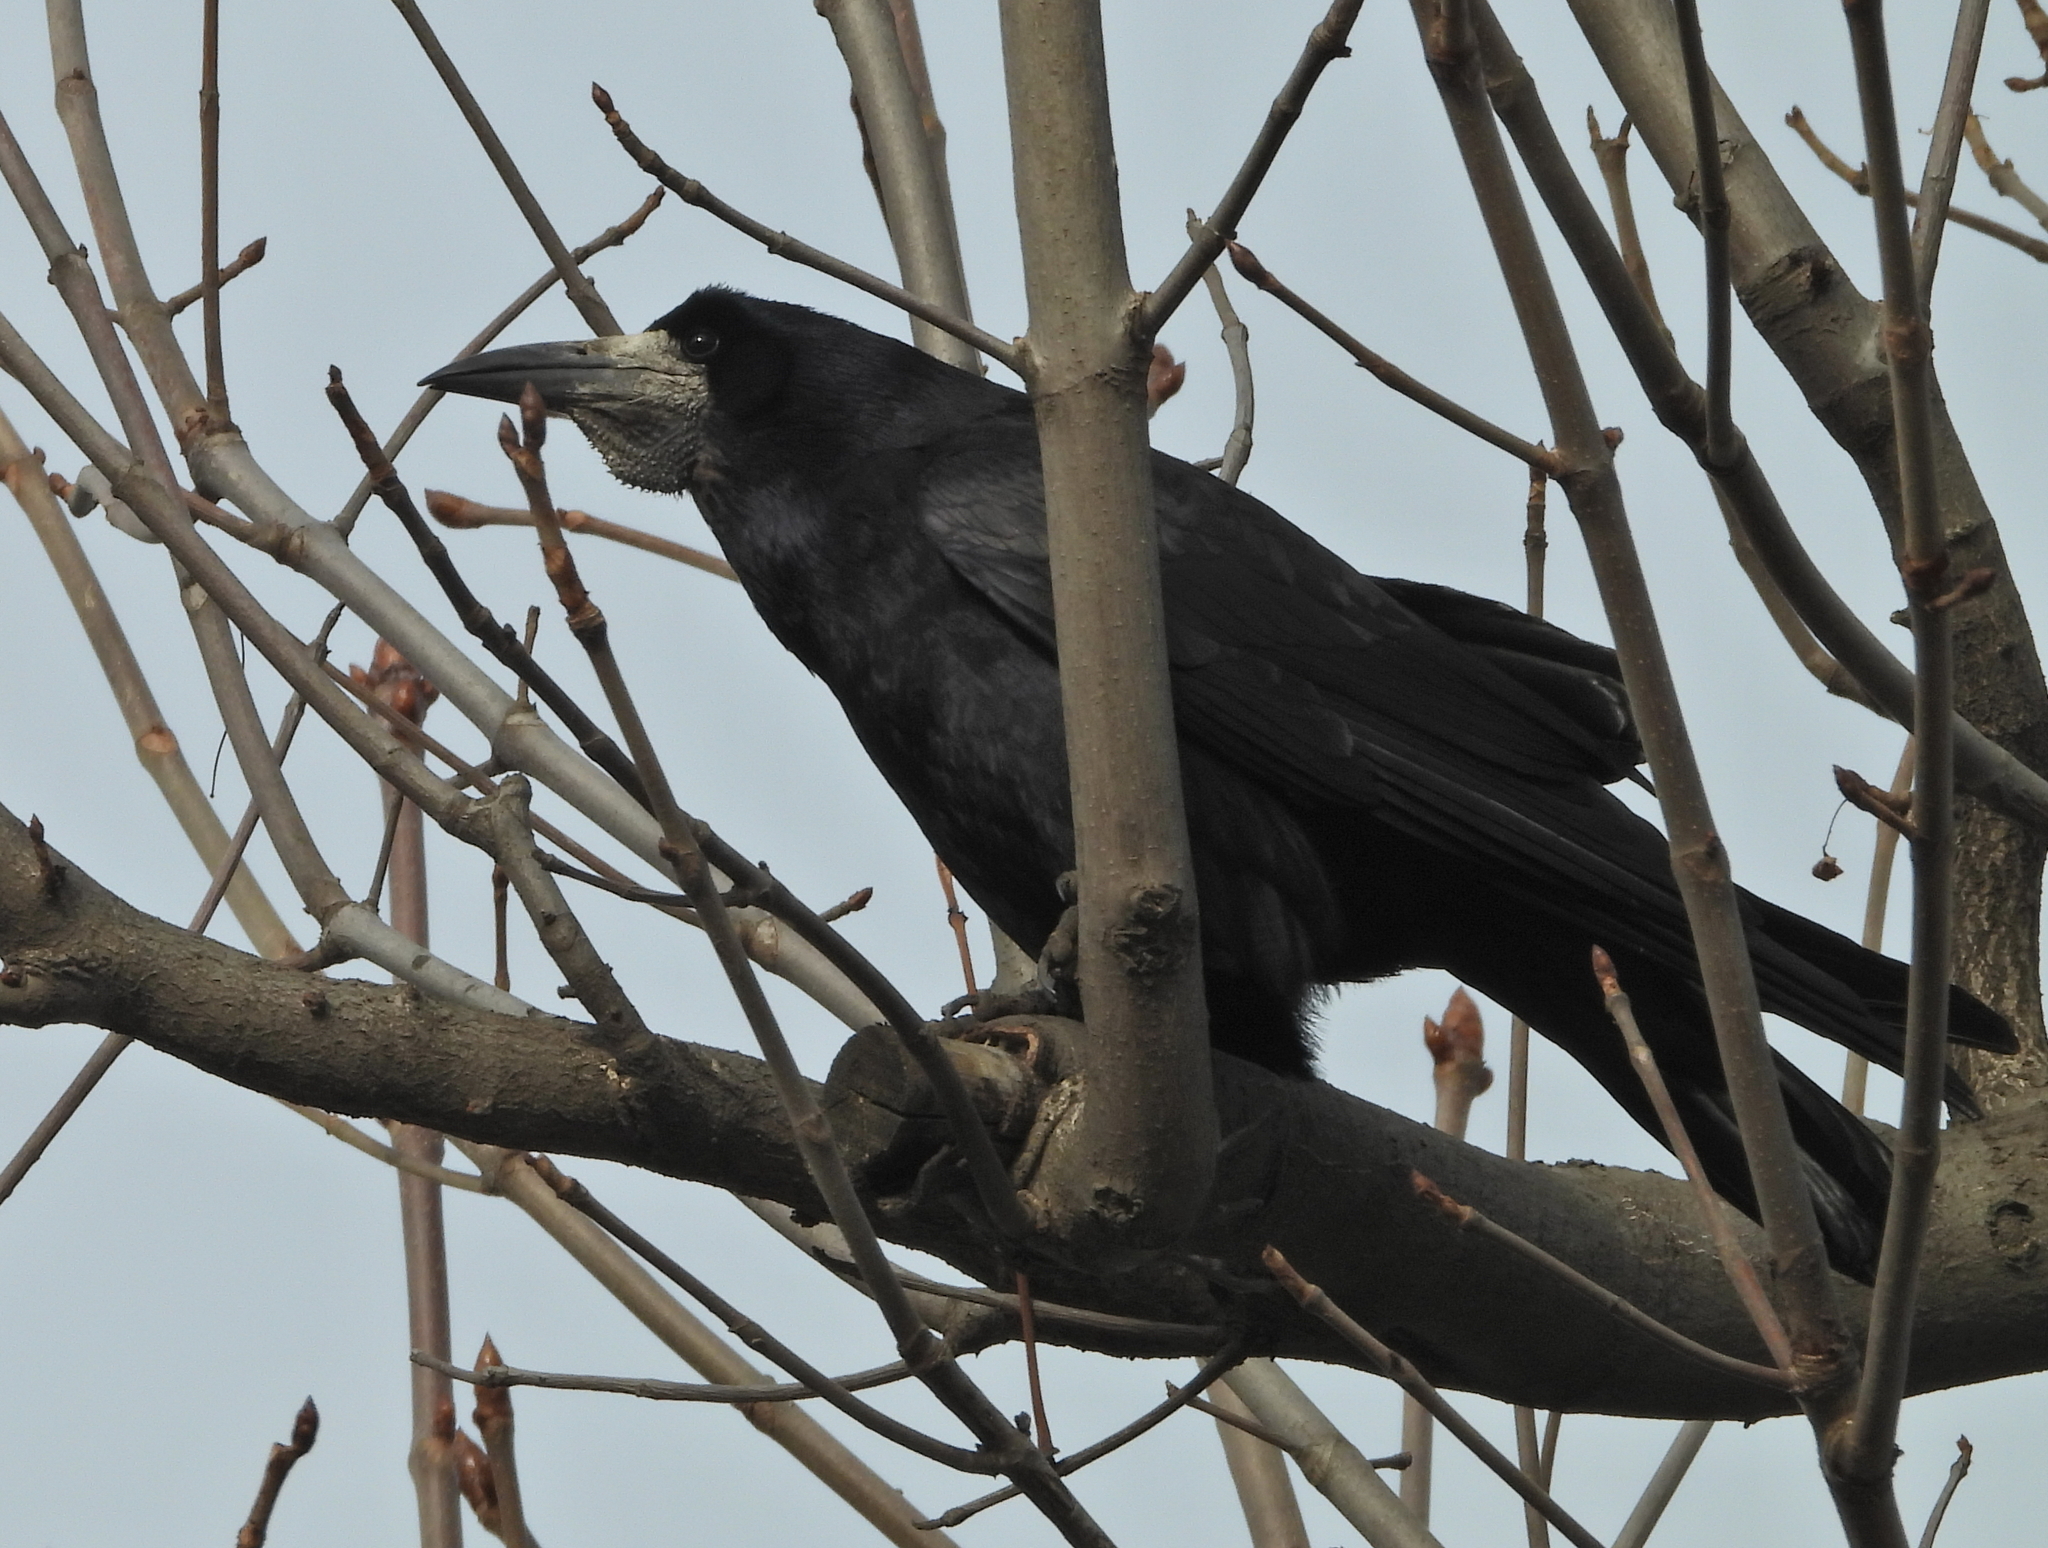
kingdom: Animalia
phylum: Chordata
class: Aves
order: Passeriformes
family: Corvidae
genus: Corvus
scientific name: Corvus frugilegus
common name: Rook
